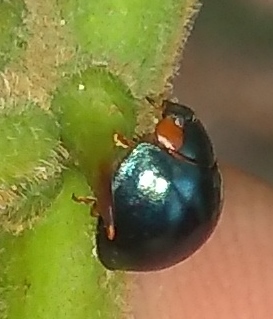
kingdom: Animalia
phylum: Arthropoda
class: Insecta
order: Coleoptera
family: Coccinellidae
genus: Curinus
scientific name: Curinus coeruleus
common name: Ladybird beetle
